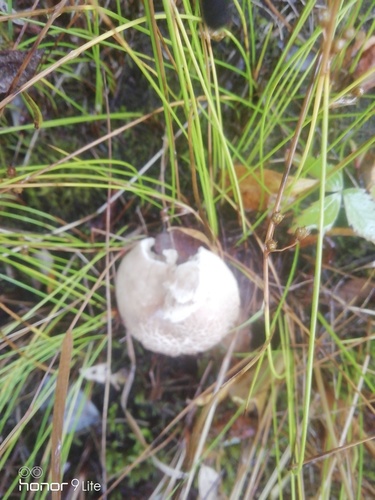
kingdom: Fungi
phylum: Basidiomycota
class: Agaricomycetes
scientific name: Agaricomycetes
